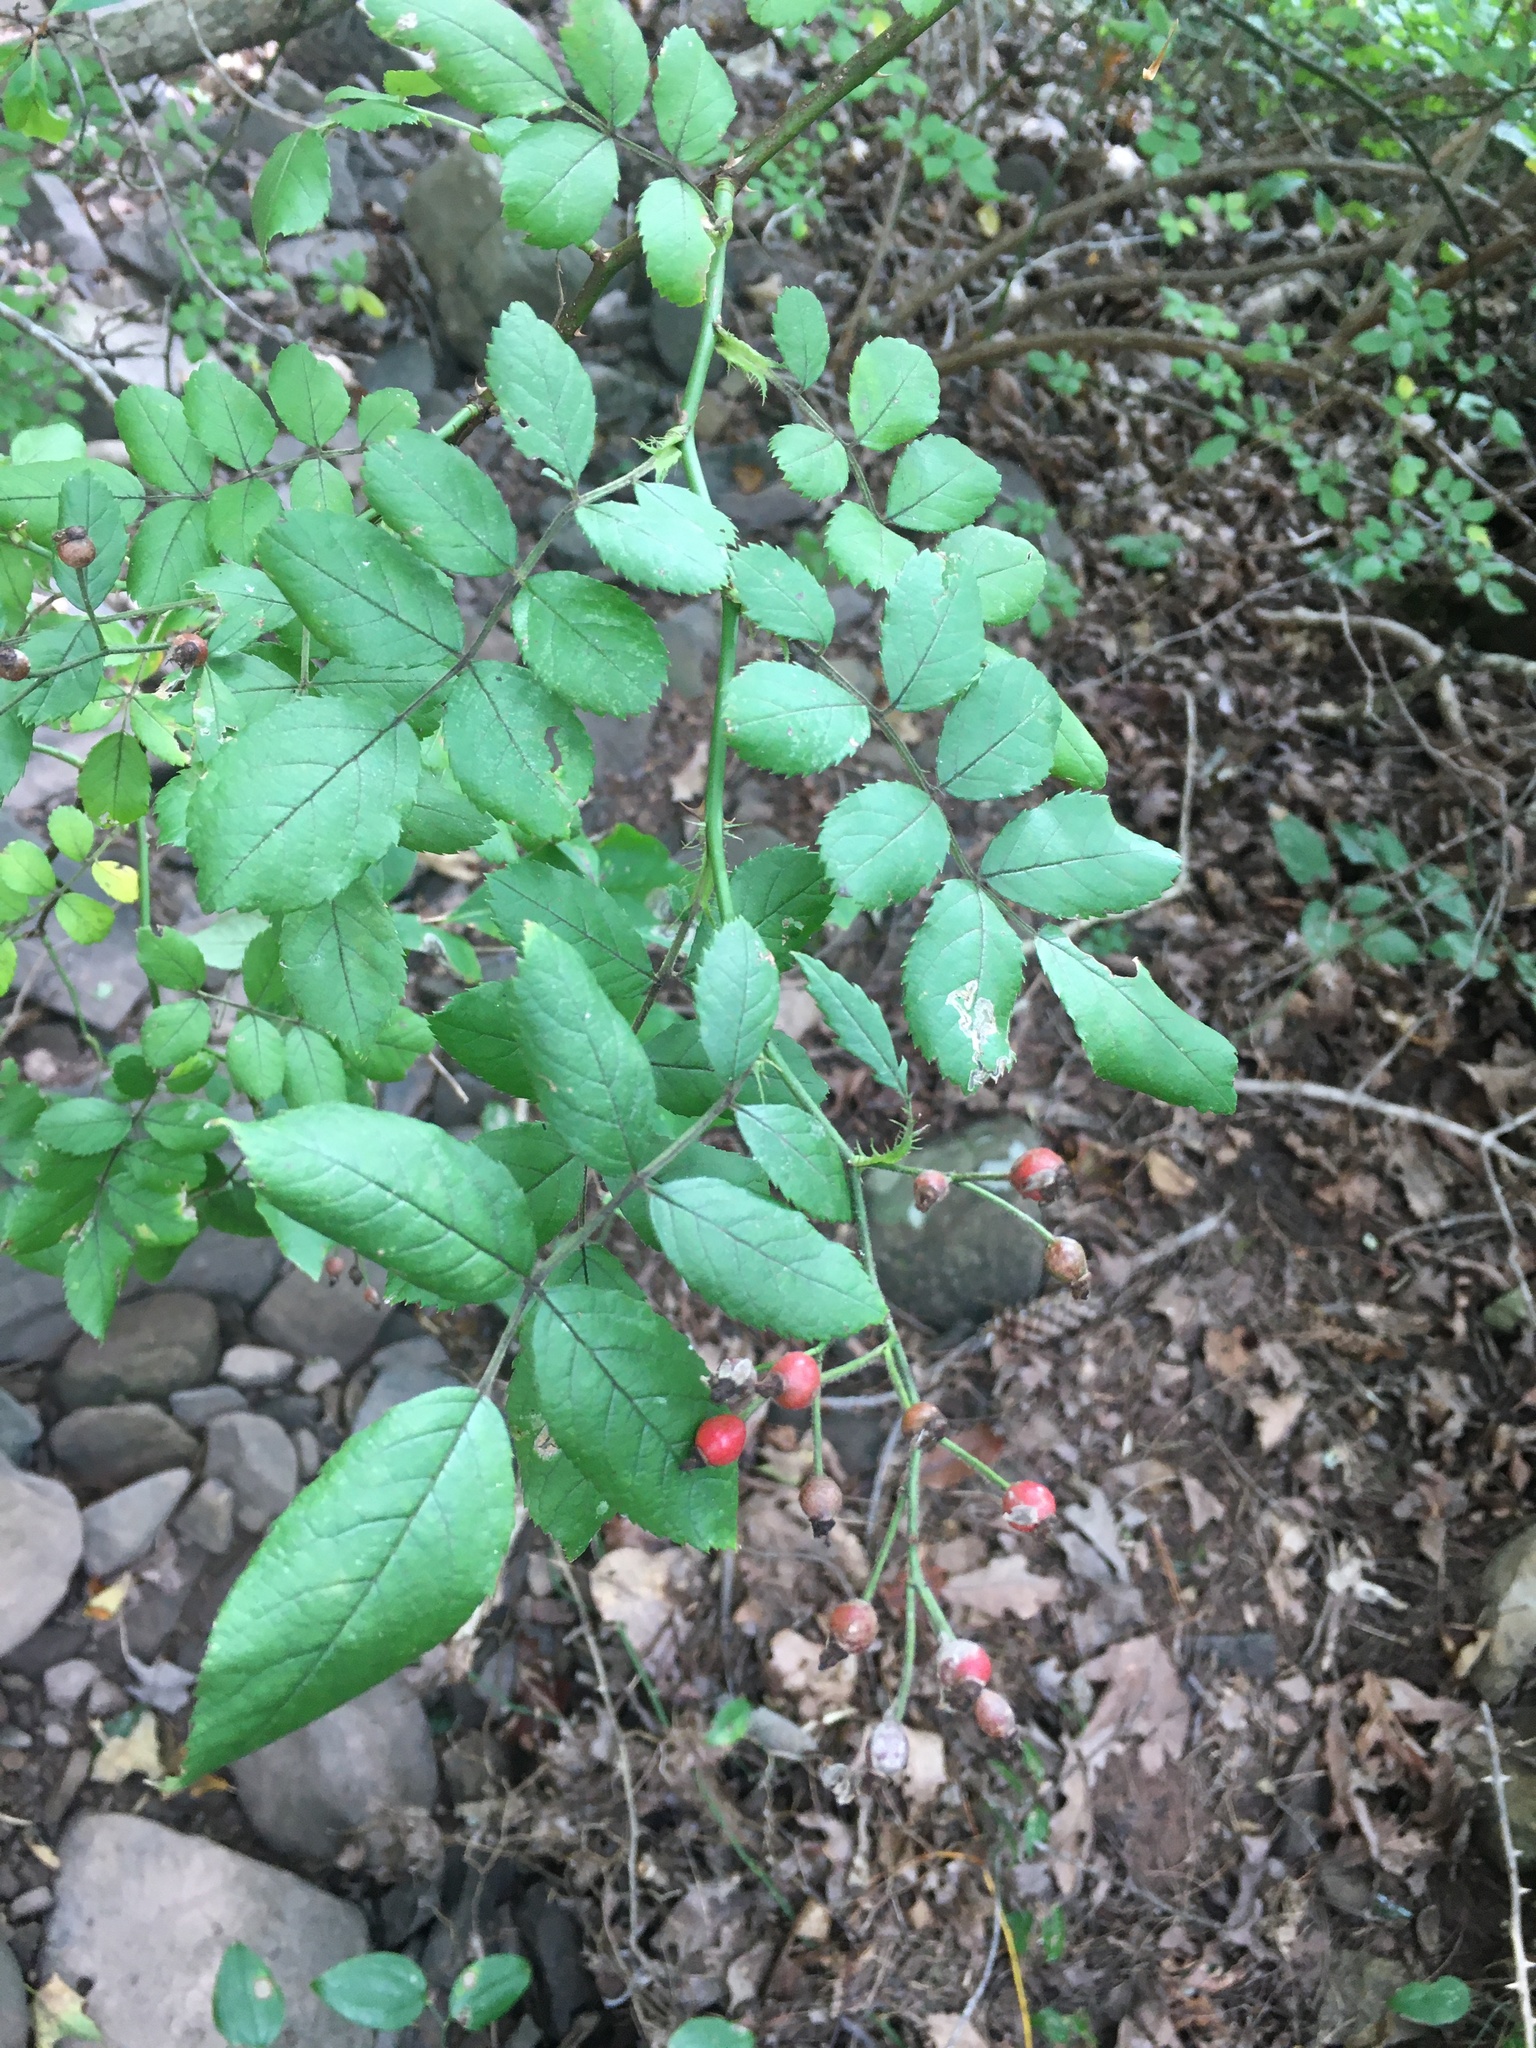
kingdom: Plantae
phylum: Tracheophyta
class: Magnoliopsida
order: Rosales
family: Rosaceae
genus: Rosa
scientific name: Rosa multiflora
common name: Multiflora rose
